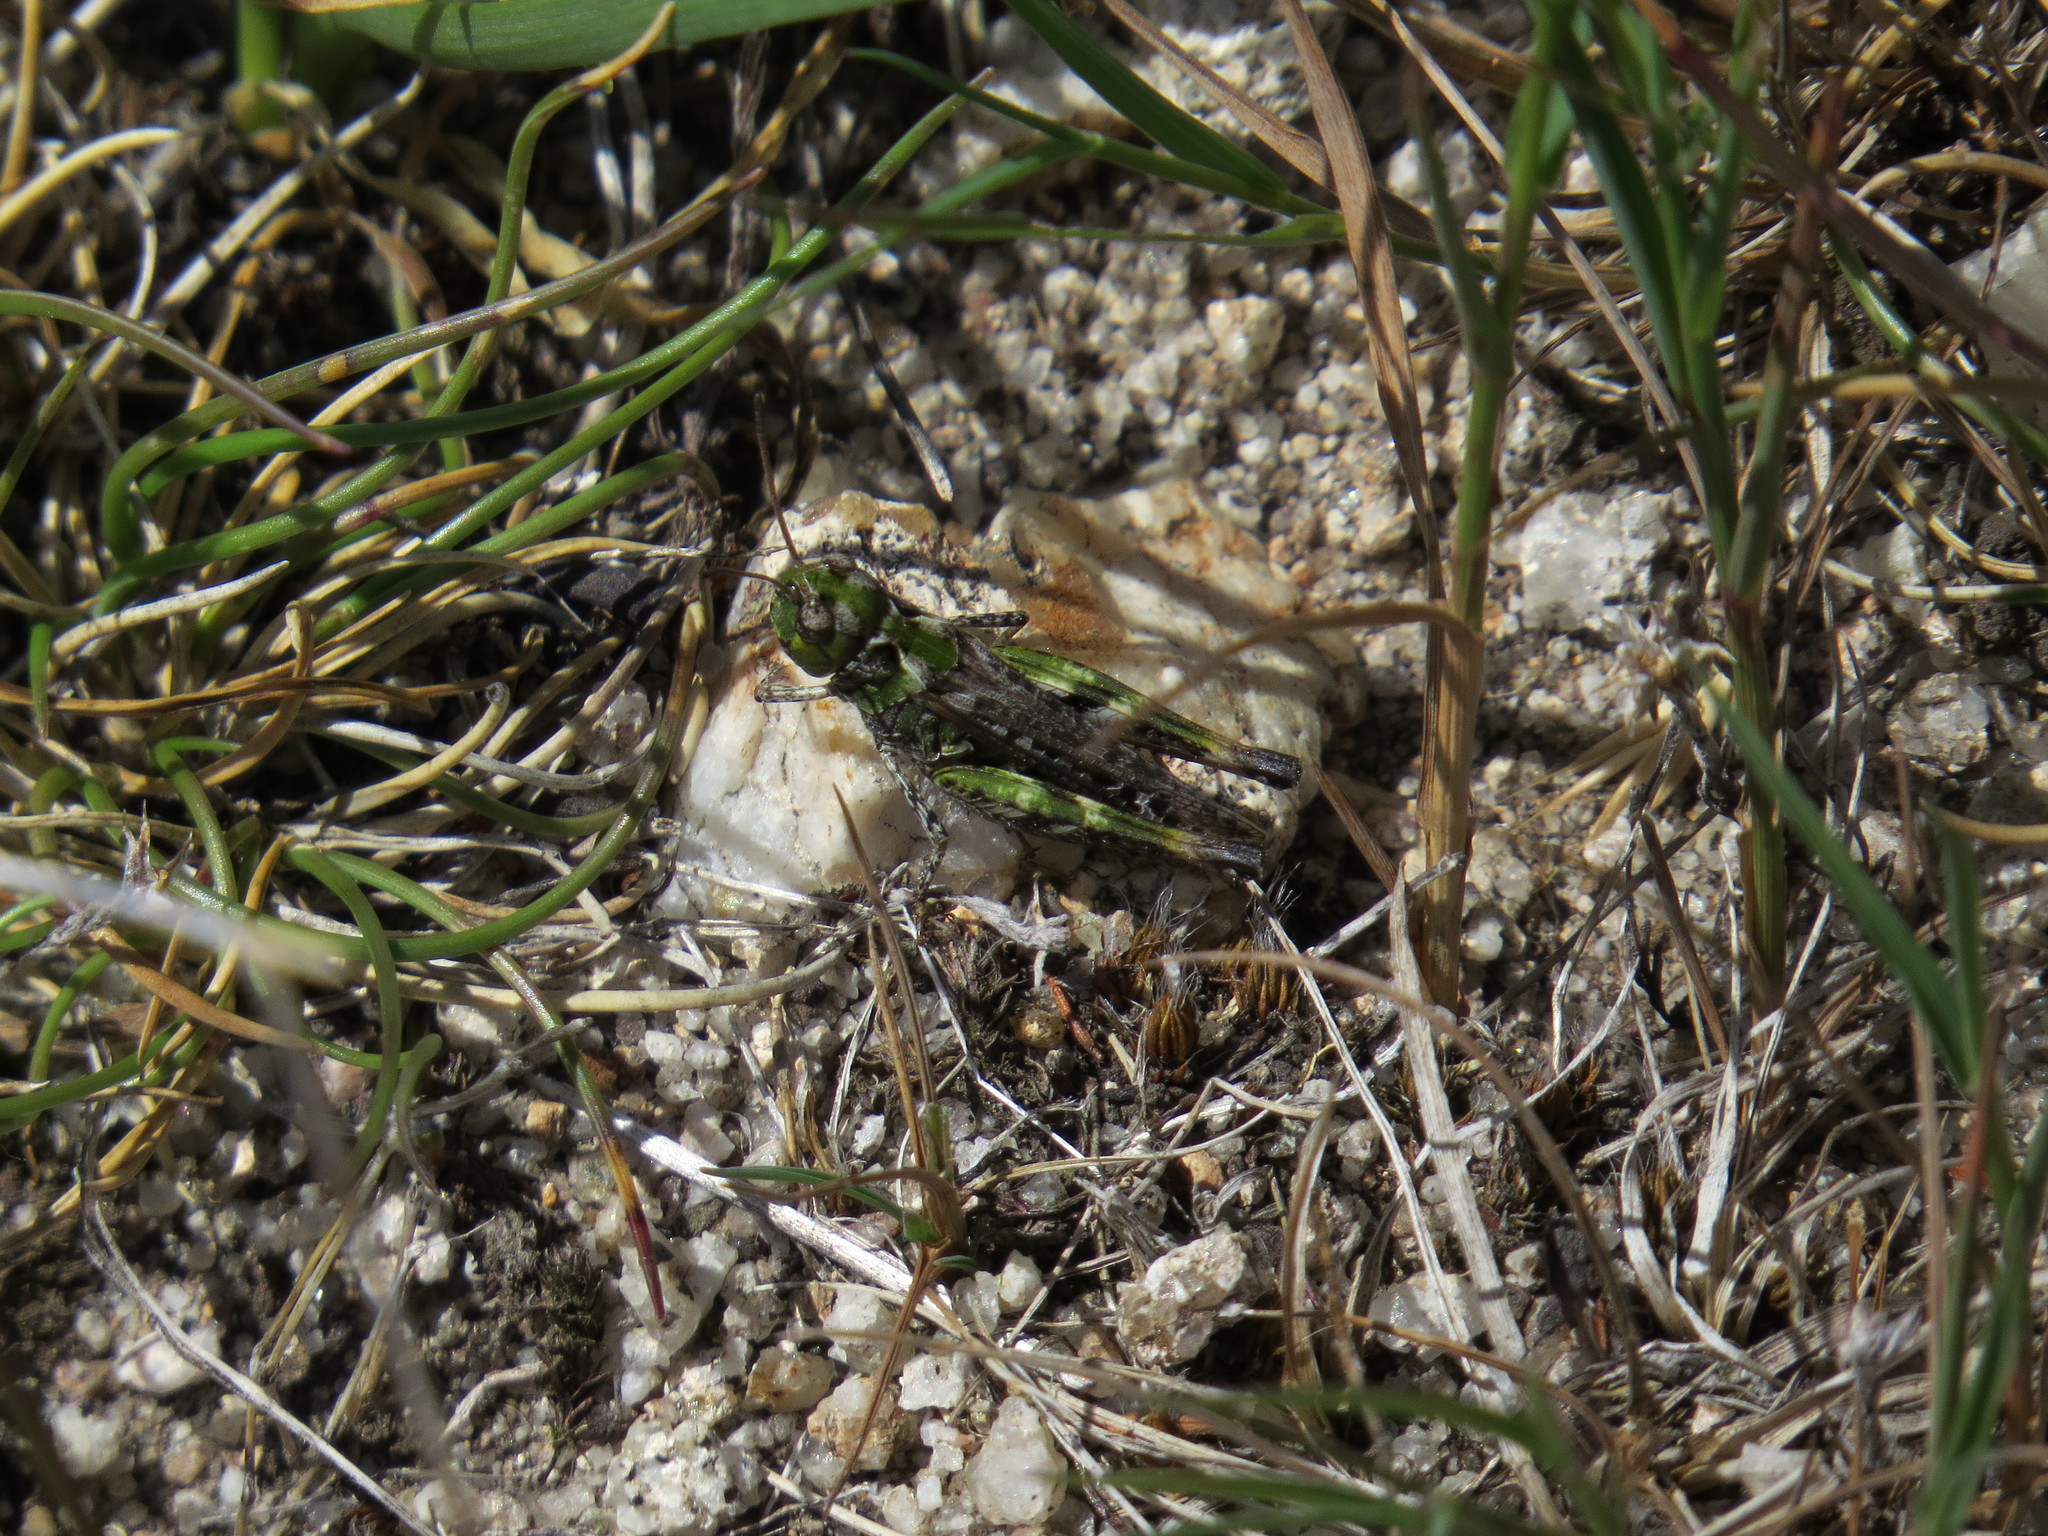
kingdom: Animalia
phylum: Arthropoda
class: Insecta
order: Orthoptera
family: Acrididae
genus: Myrmeleotettix
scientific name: Myrmeleotettix maculatus
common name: Mottled grasshopper
